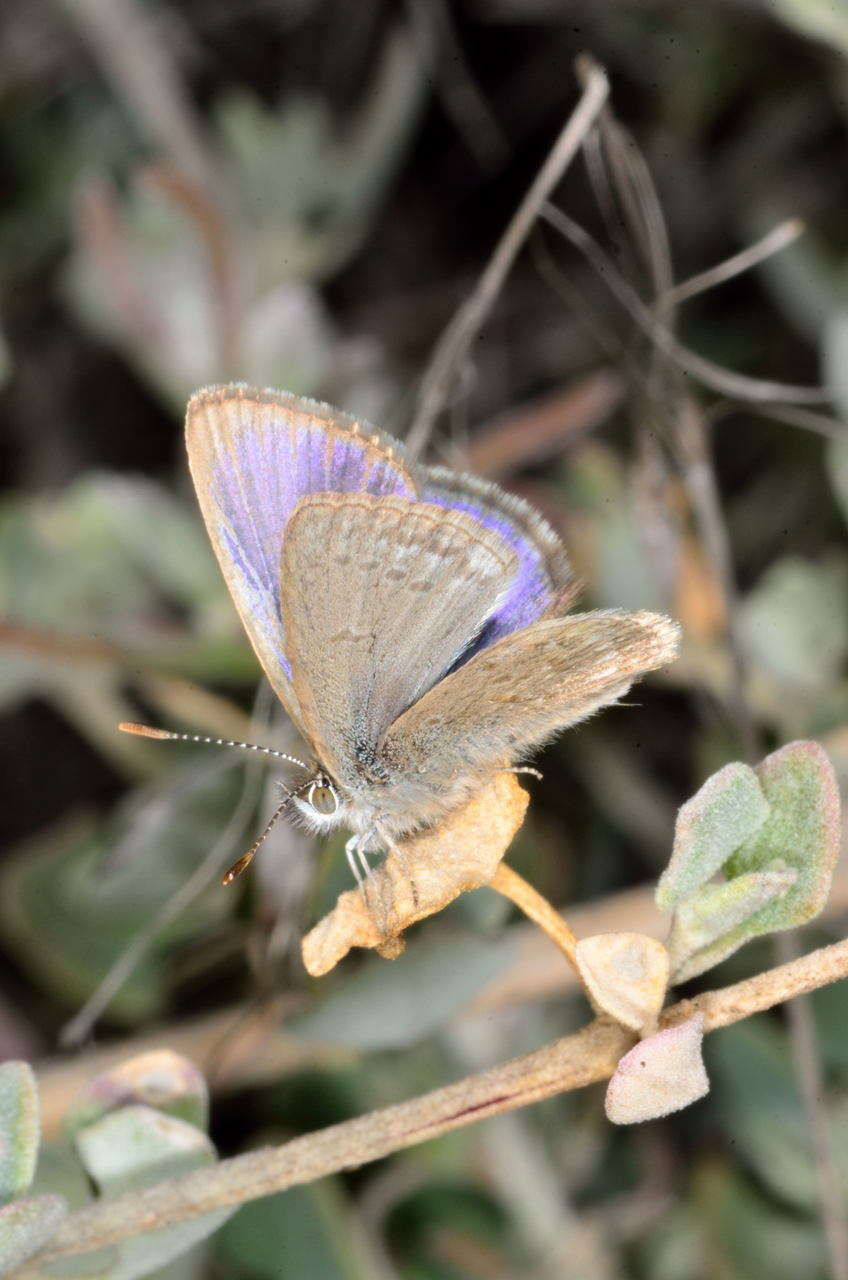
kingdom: Animalia
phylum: Arthropoda
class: Insecta
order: Lepidoptera
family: Lycaenidae
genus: Zizina
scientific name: Zizina labradus
